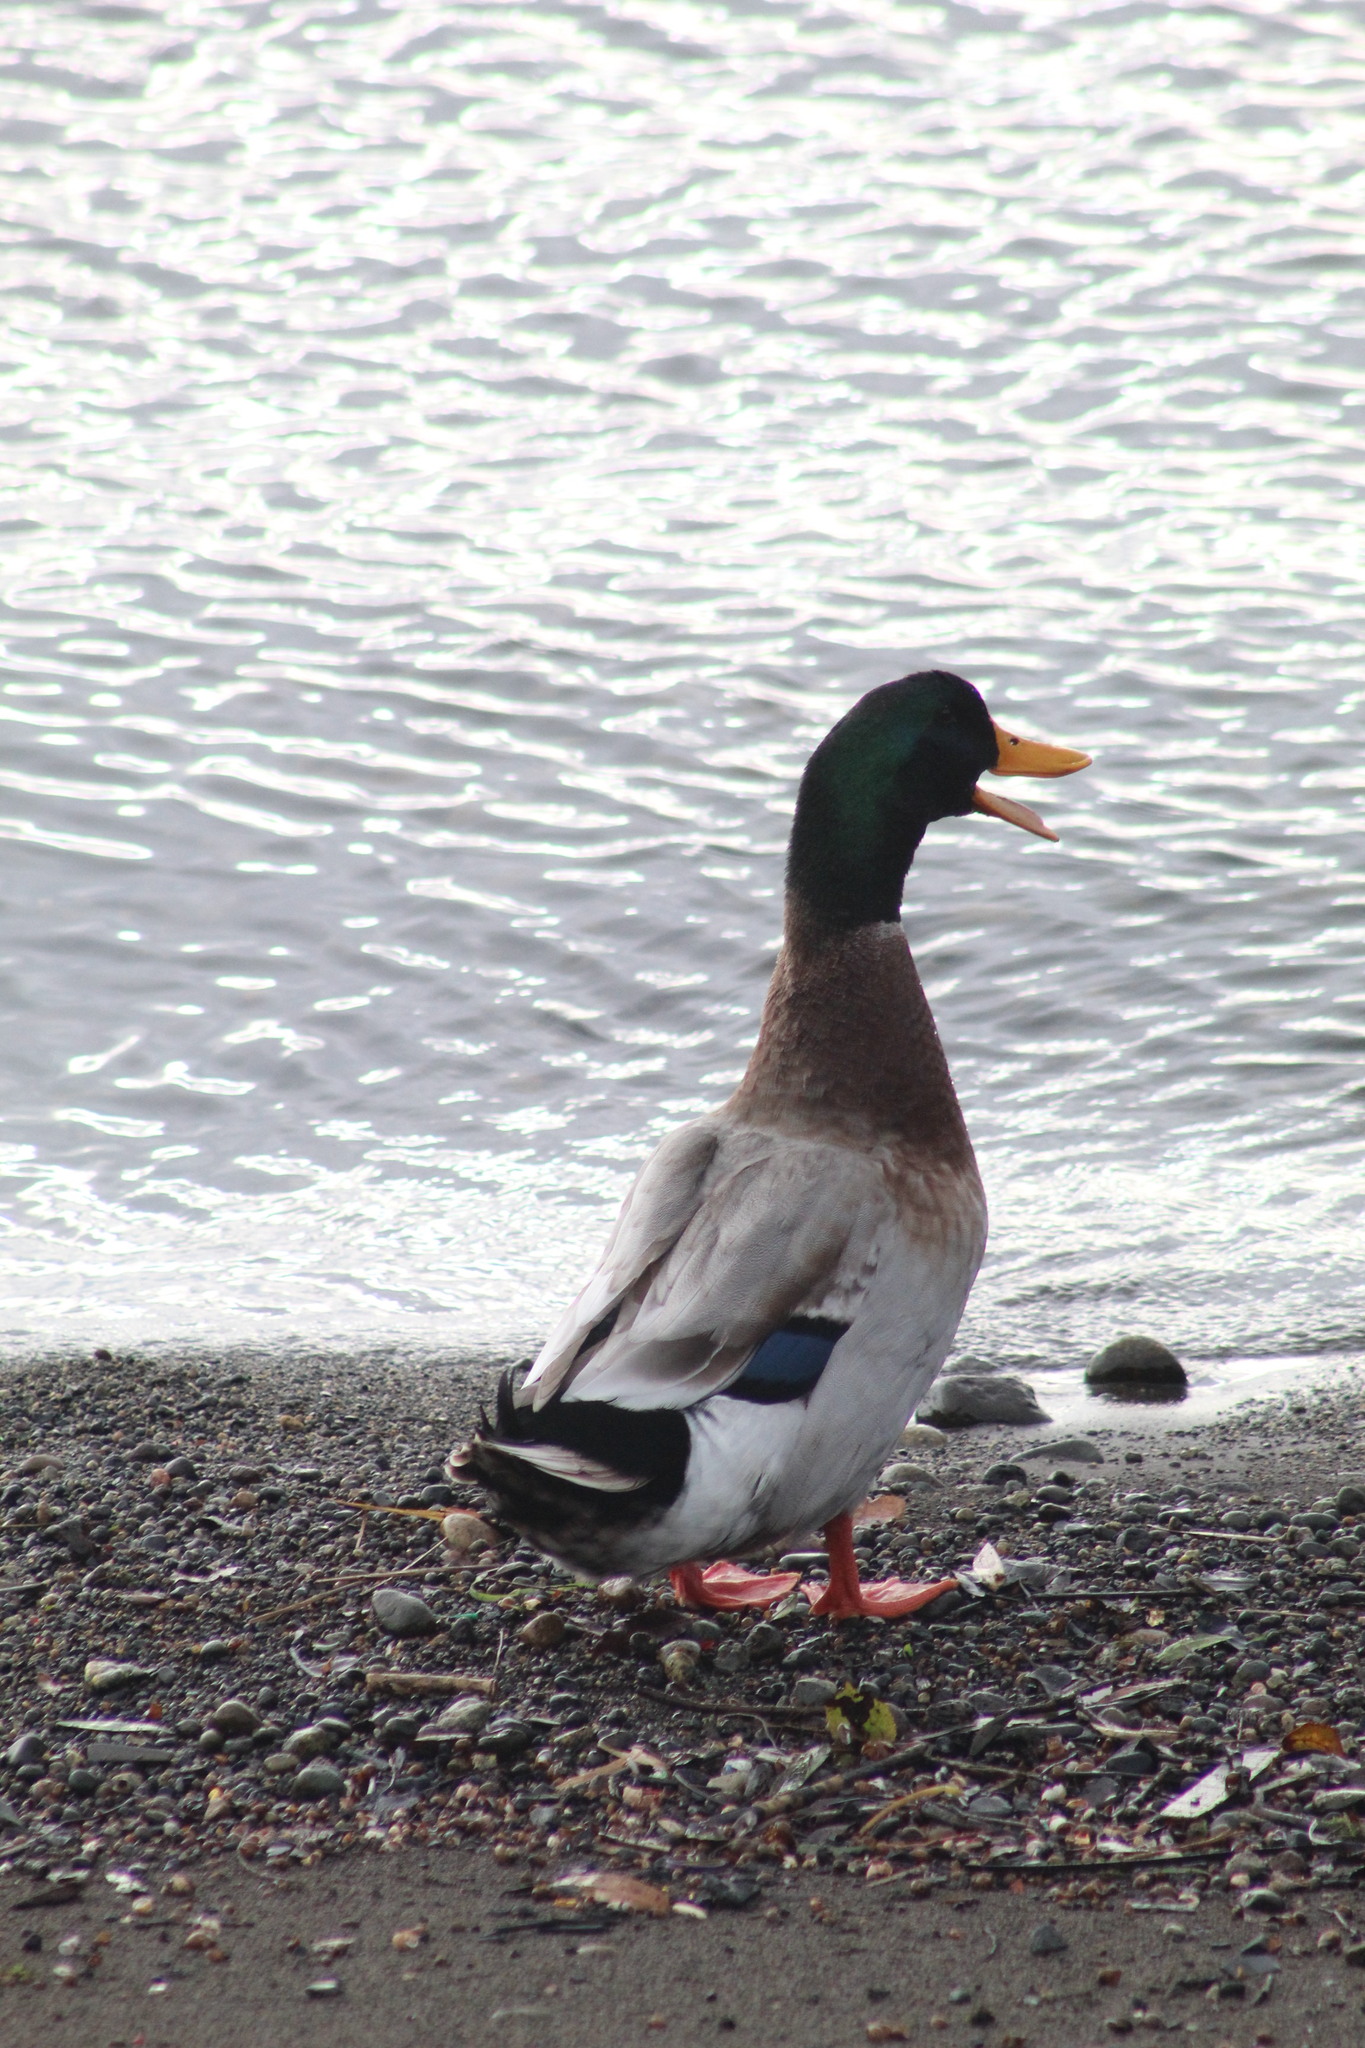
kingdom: Animalia
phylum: Chordata
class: Aves
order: Anseriformes
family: Anatidae
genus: Anas
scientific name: Anas platyrhynchos
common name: Mallard
